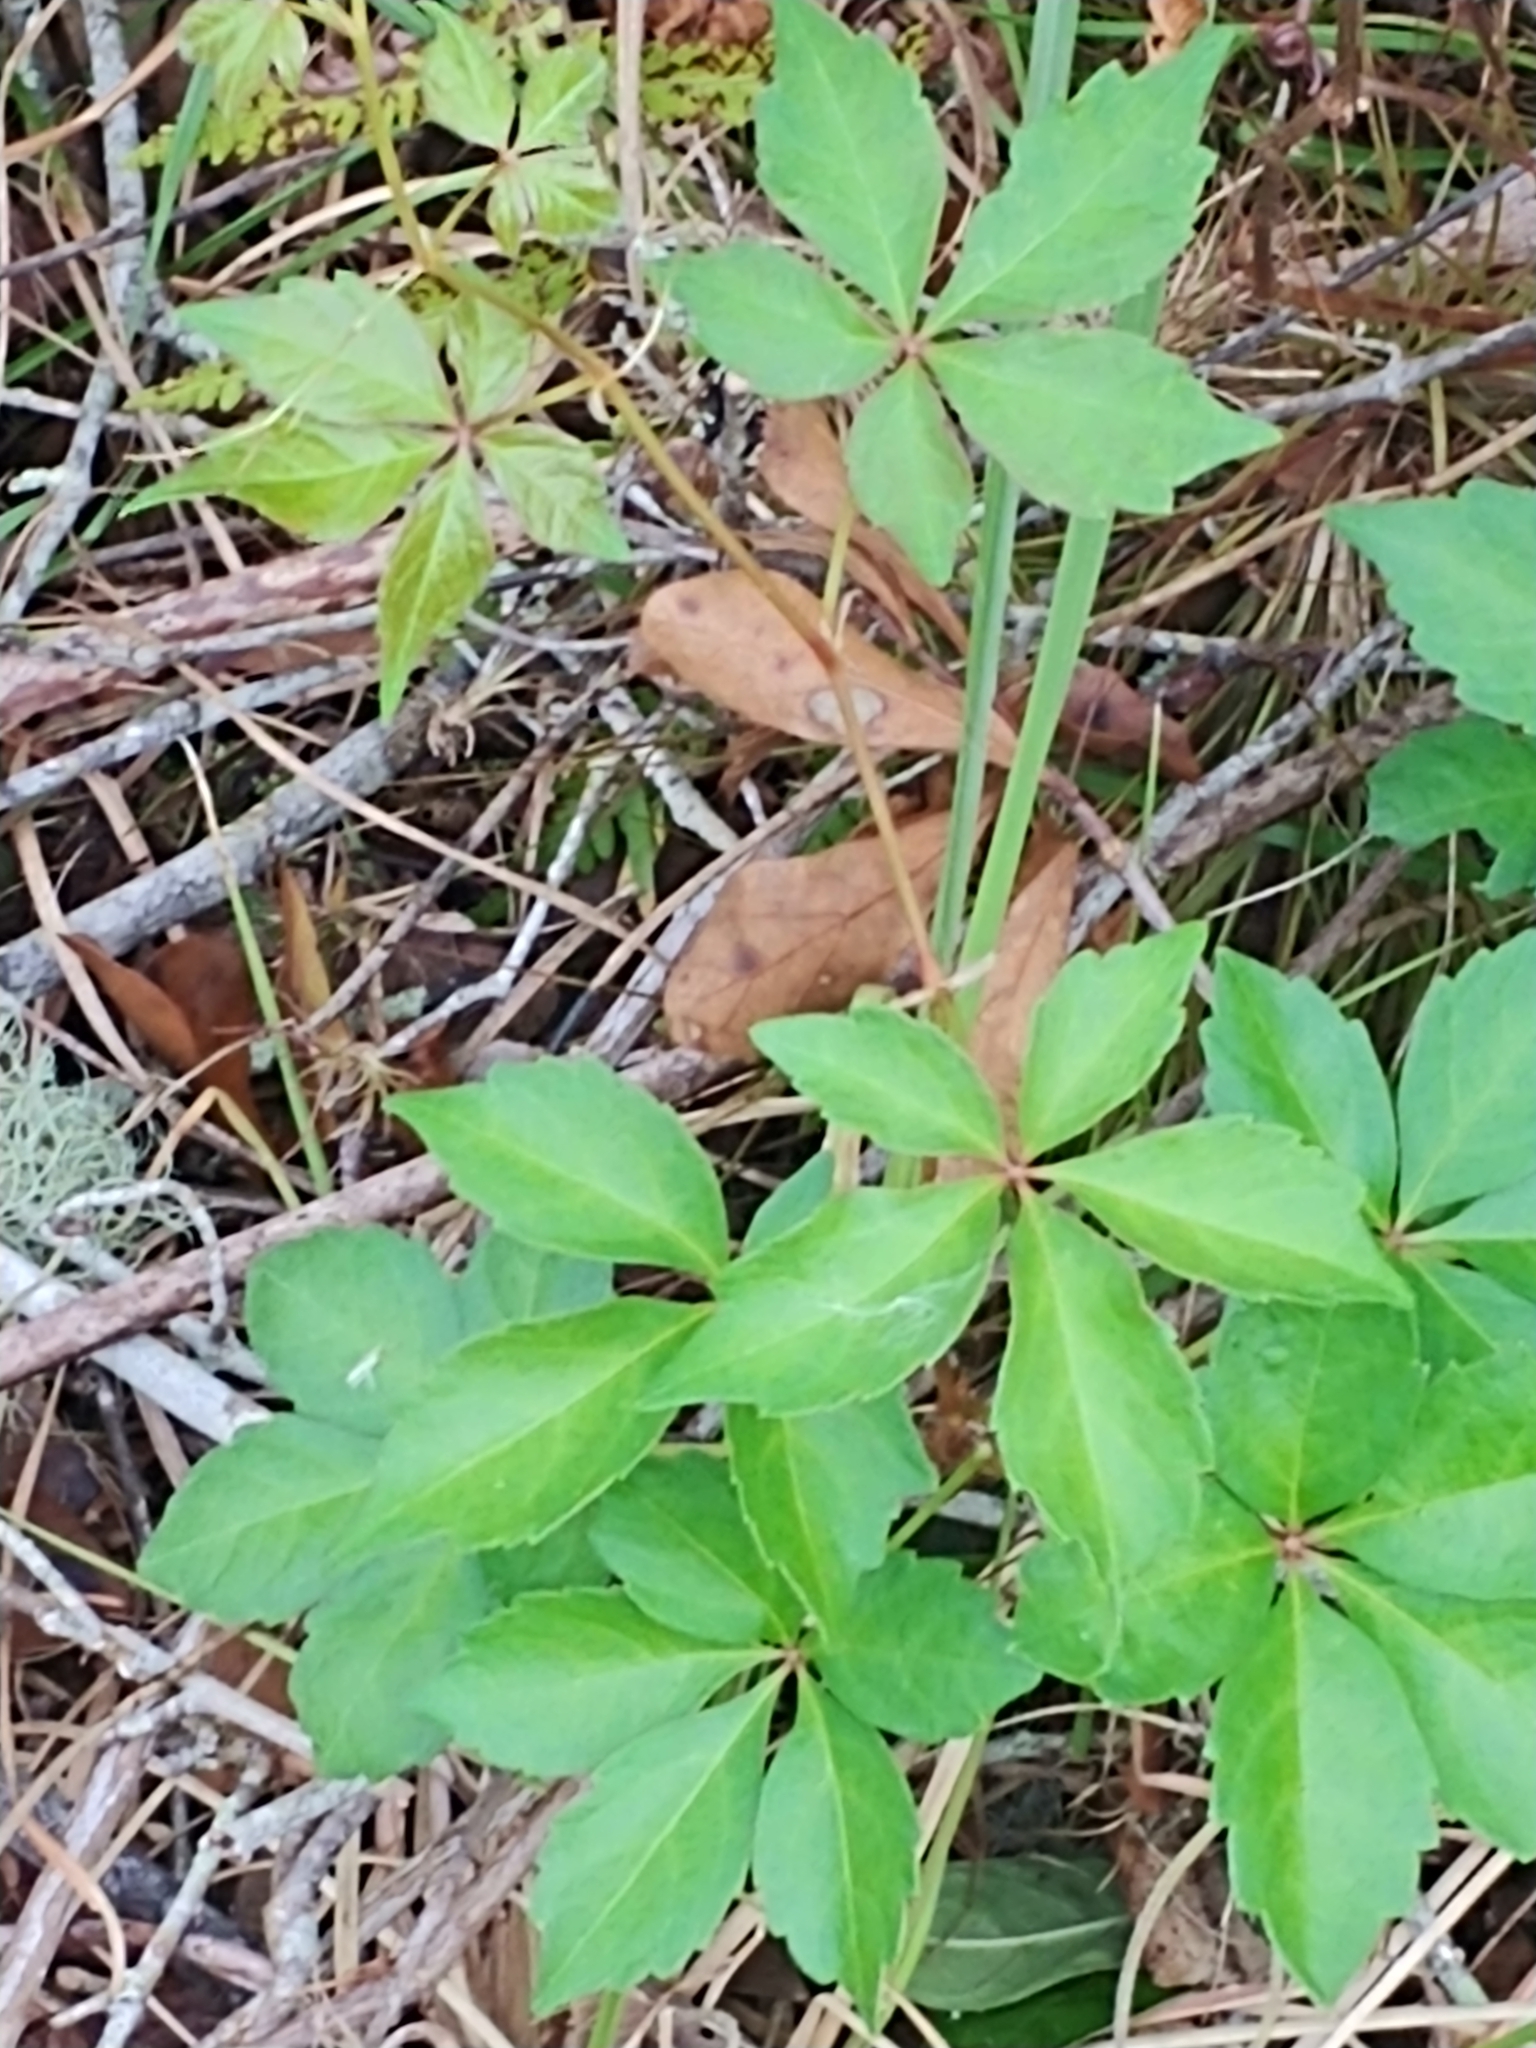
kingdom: Plantae
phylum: Tracheophyta
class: Magnoliopsida
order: Vitales
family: Vitaceae
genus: Parthenocissus
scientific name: Parthenocissus quinquefolia
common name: Virginia-creeper
